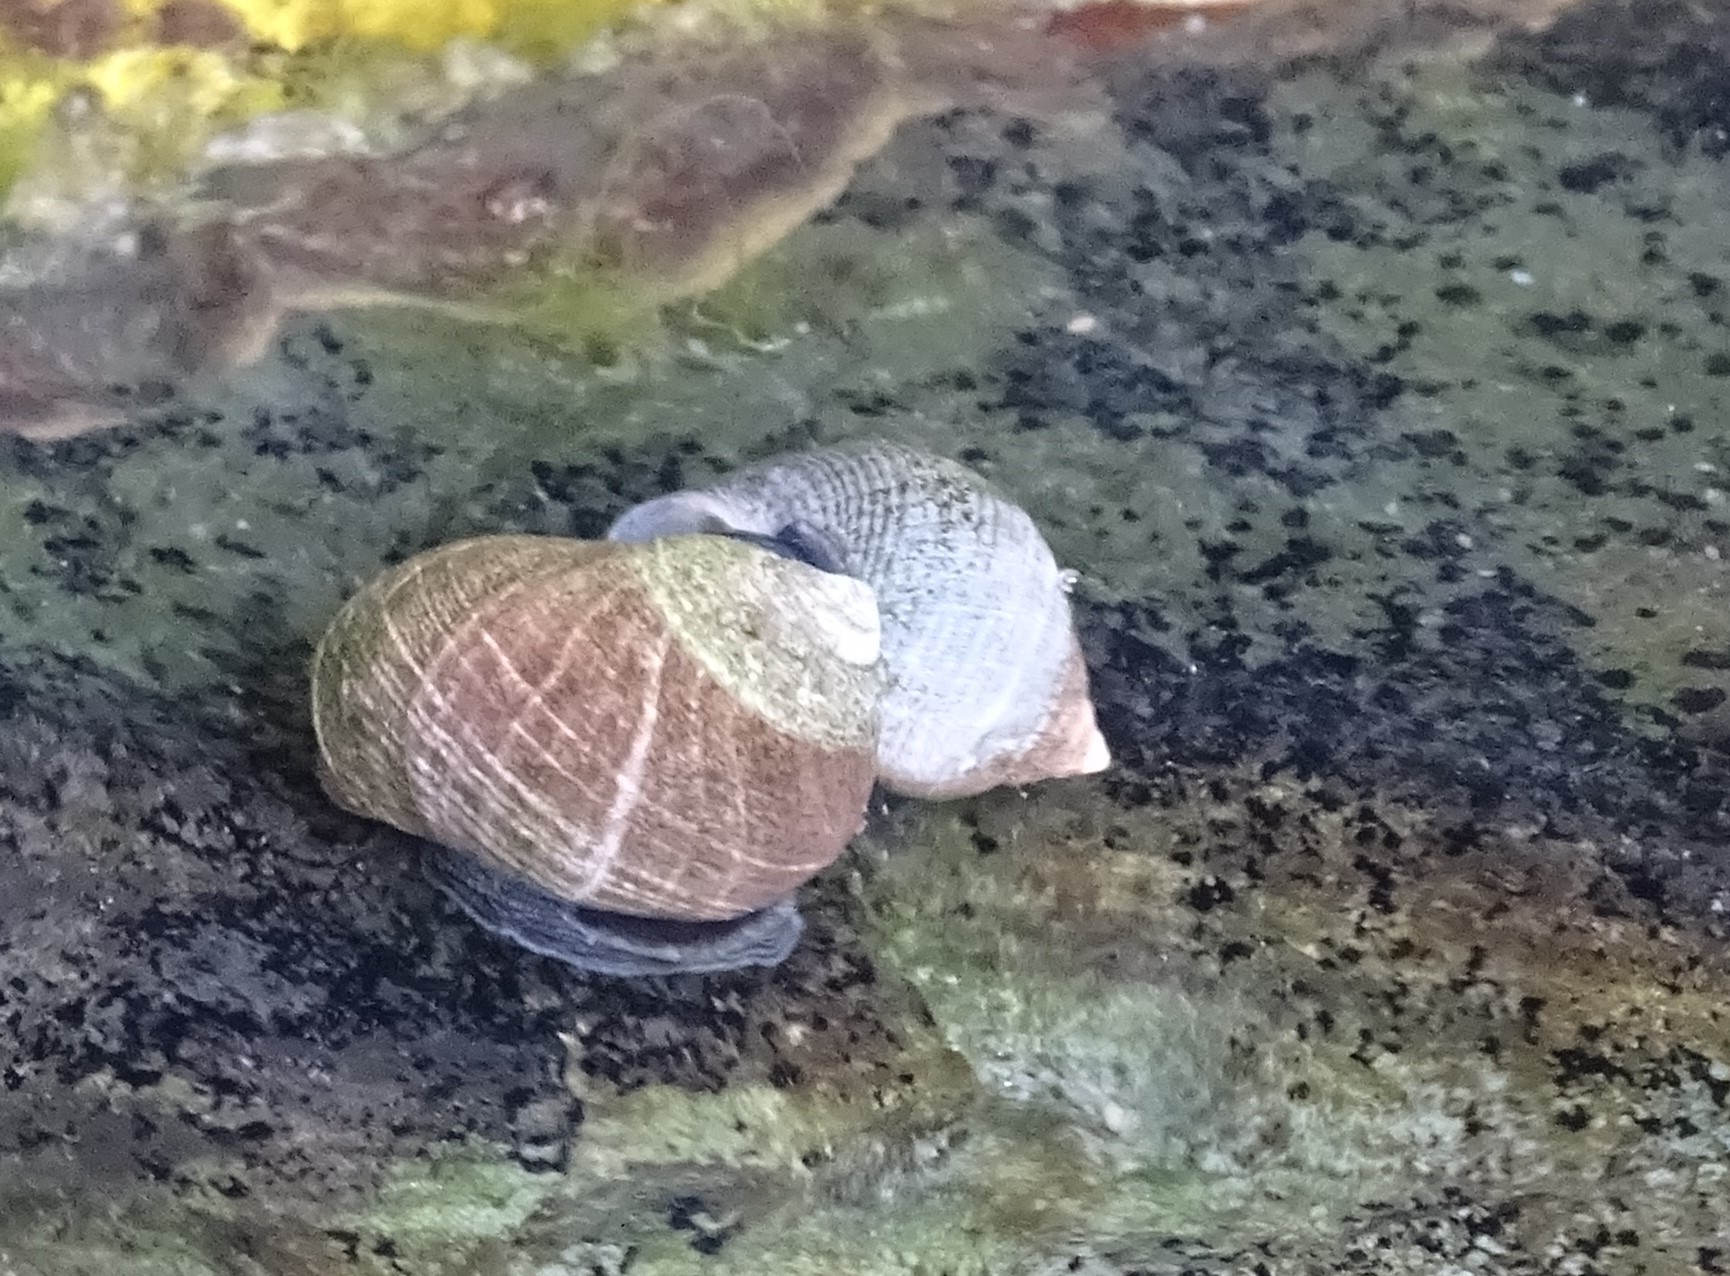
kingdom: Animalia
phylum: Mollusca
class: Gastropoda
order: Littorinimorpha
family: Littorinidae
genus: Littorina
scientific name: Littorina littorea
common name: Common periwinkle
